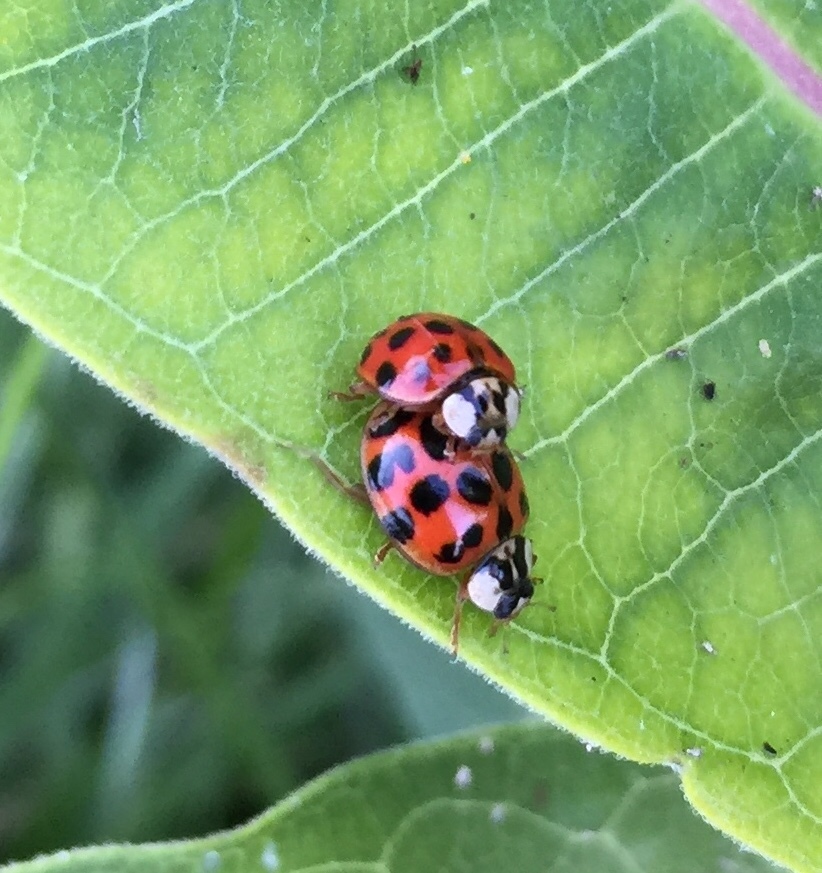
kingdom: Animalia
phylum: Arthropoda
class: Insecta
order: Coleoptera
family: Coccinellidae
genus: Harmonia
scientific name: Harmonia axyridis
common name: Harlequin ladybird
